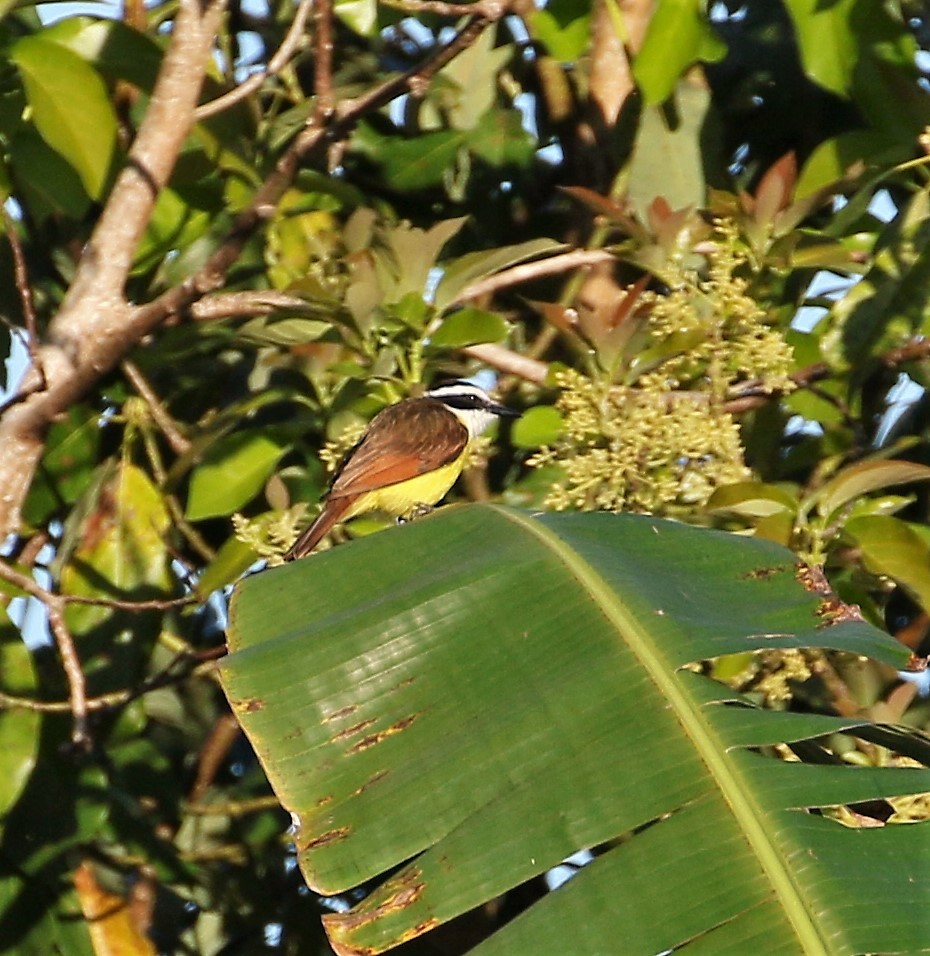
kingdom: Animalia
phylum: Chordata
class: Aves
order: Passeriformes
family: Tyrannidae
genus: Pitangus
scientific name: Pitangus sulphuratus
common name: Great kiskadee
